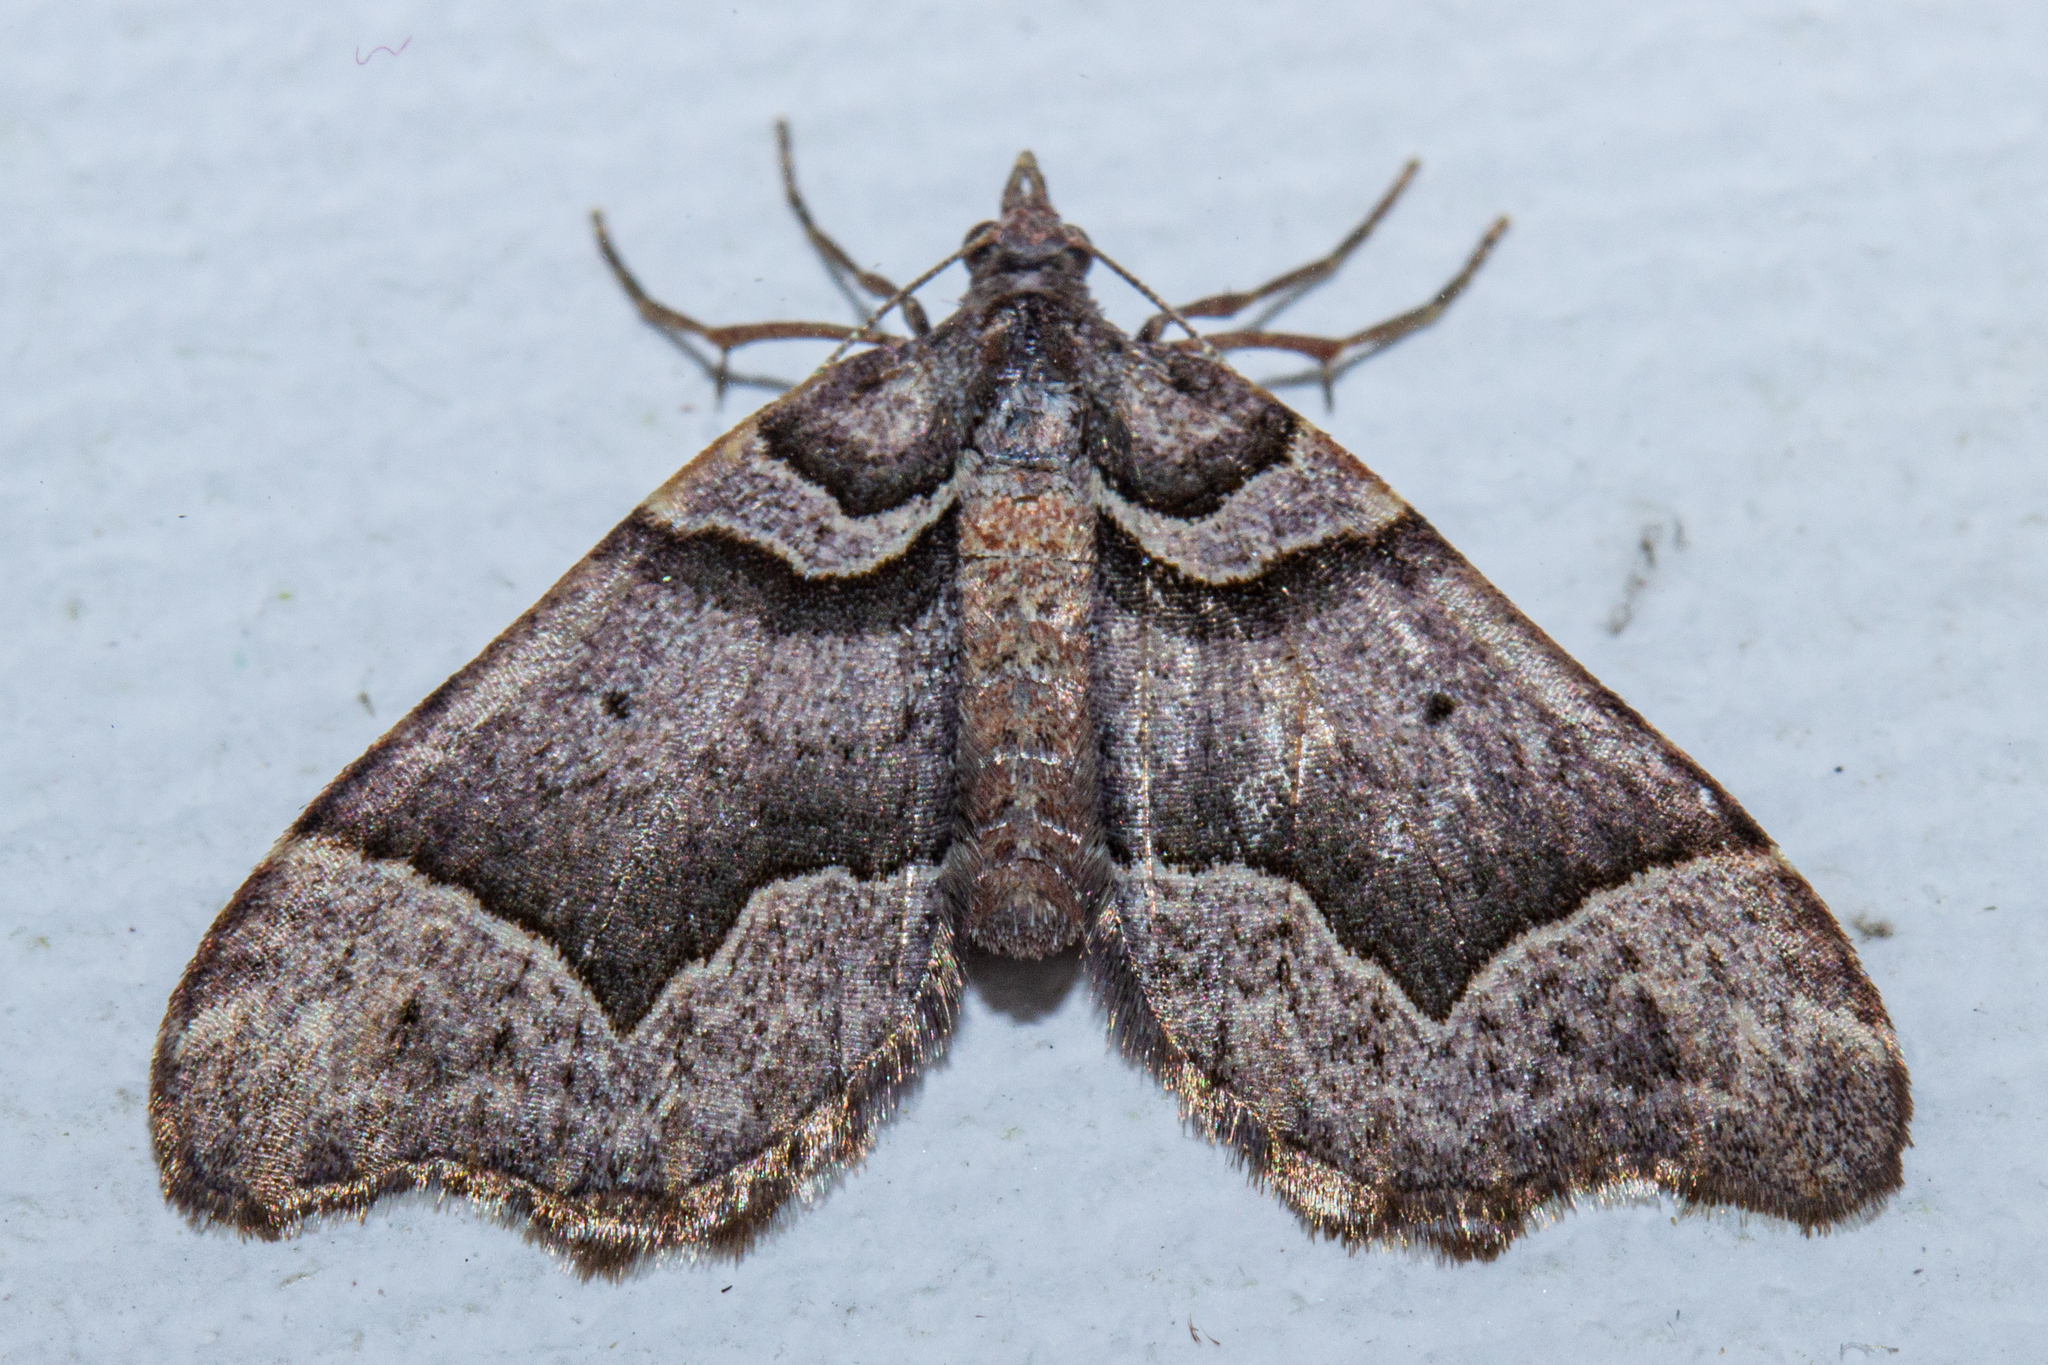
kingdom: Animalia
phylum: Arthropoda
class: Insecta
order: Lepidoptera
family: Geometridae
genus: Helastia
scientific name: Helastia triphragma
